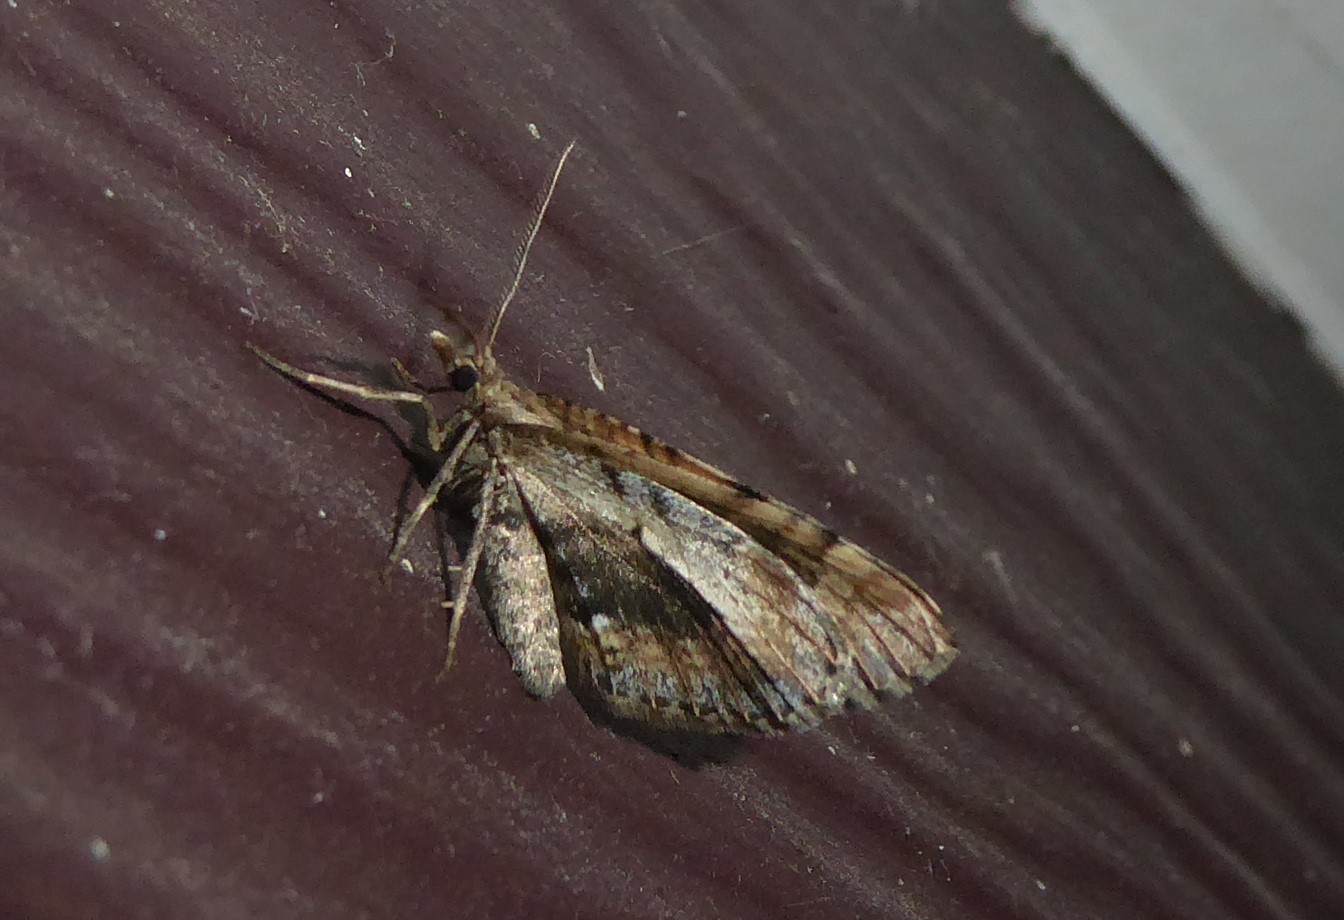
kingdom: Animalia
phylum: Arthropoda
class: Insecta
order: Lepidoptera
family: Geometridae
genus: Asaphodes
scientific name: Asaphodes aegrota
